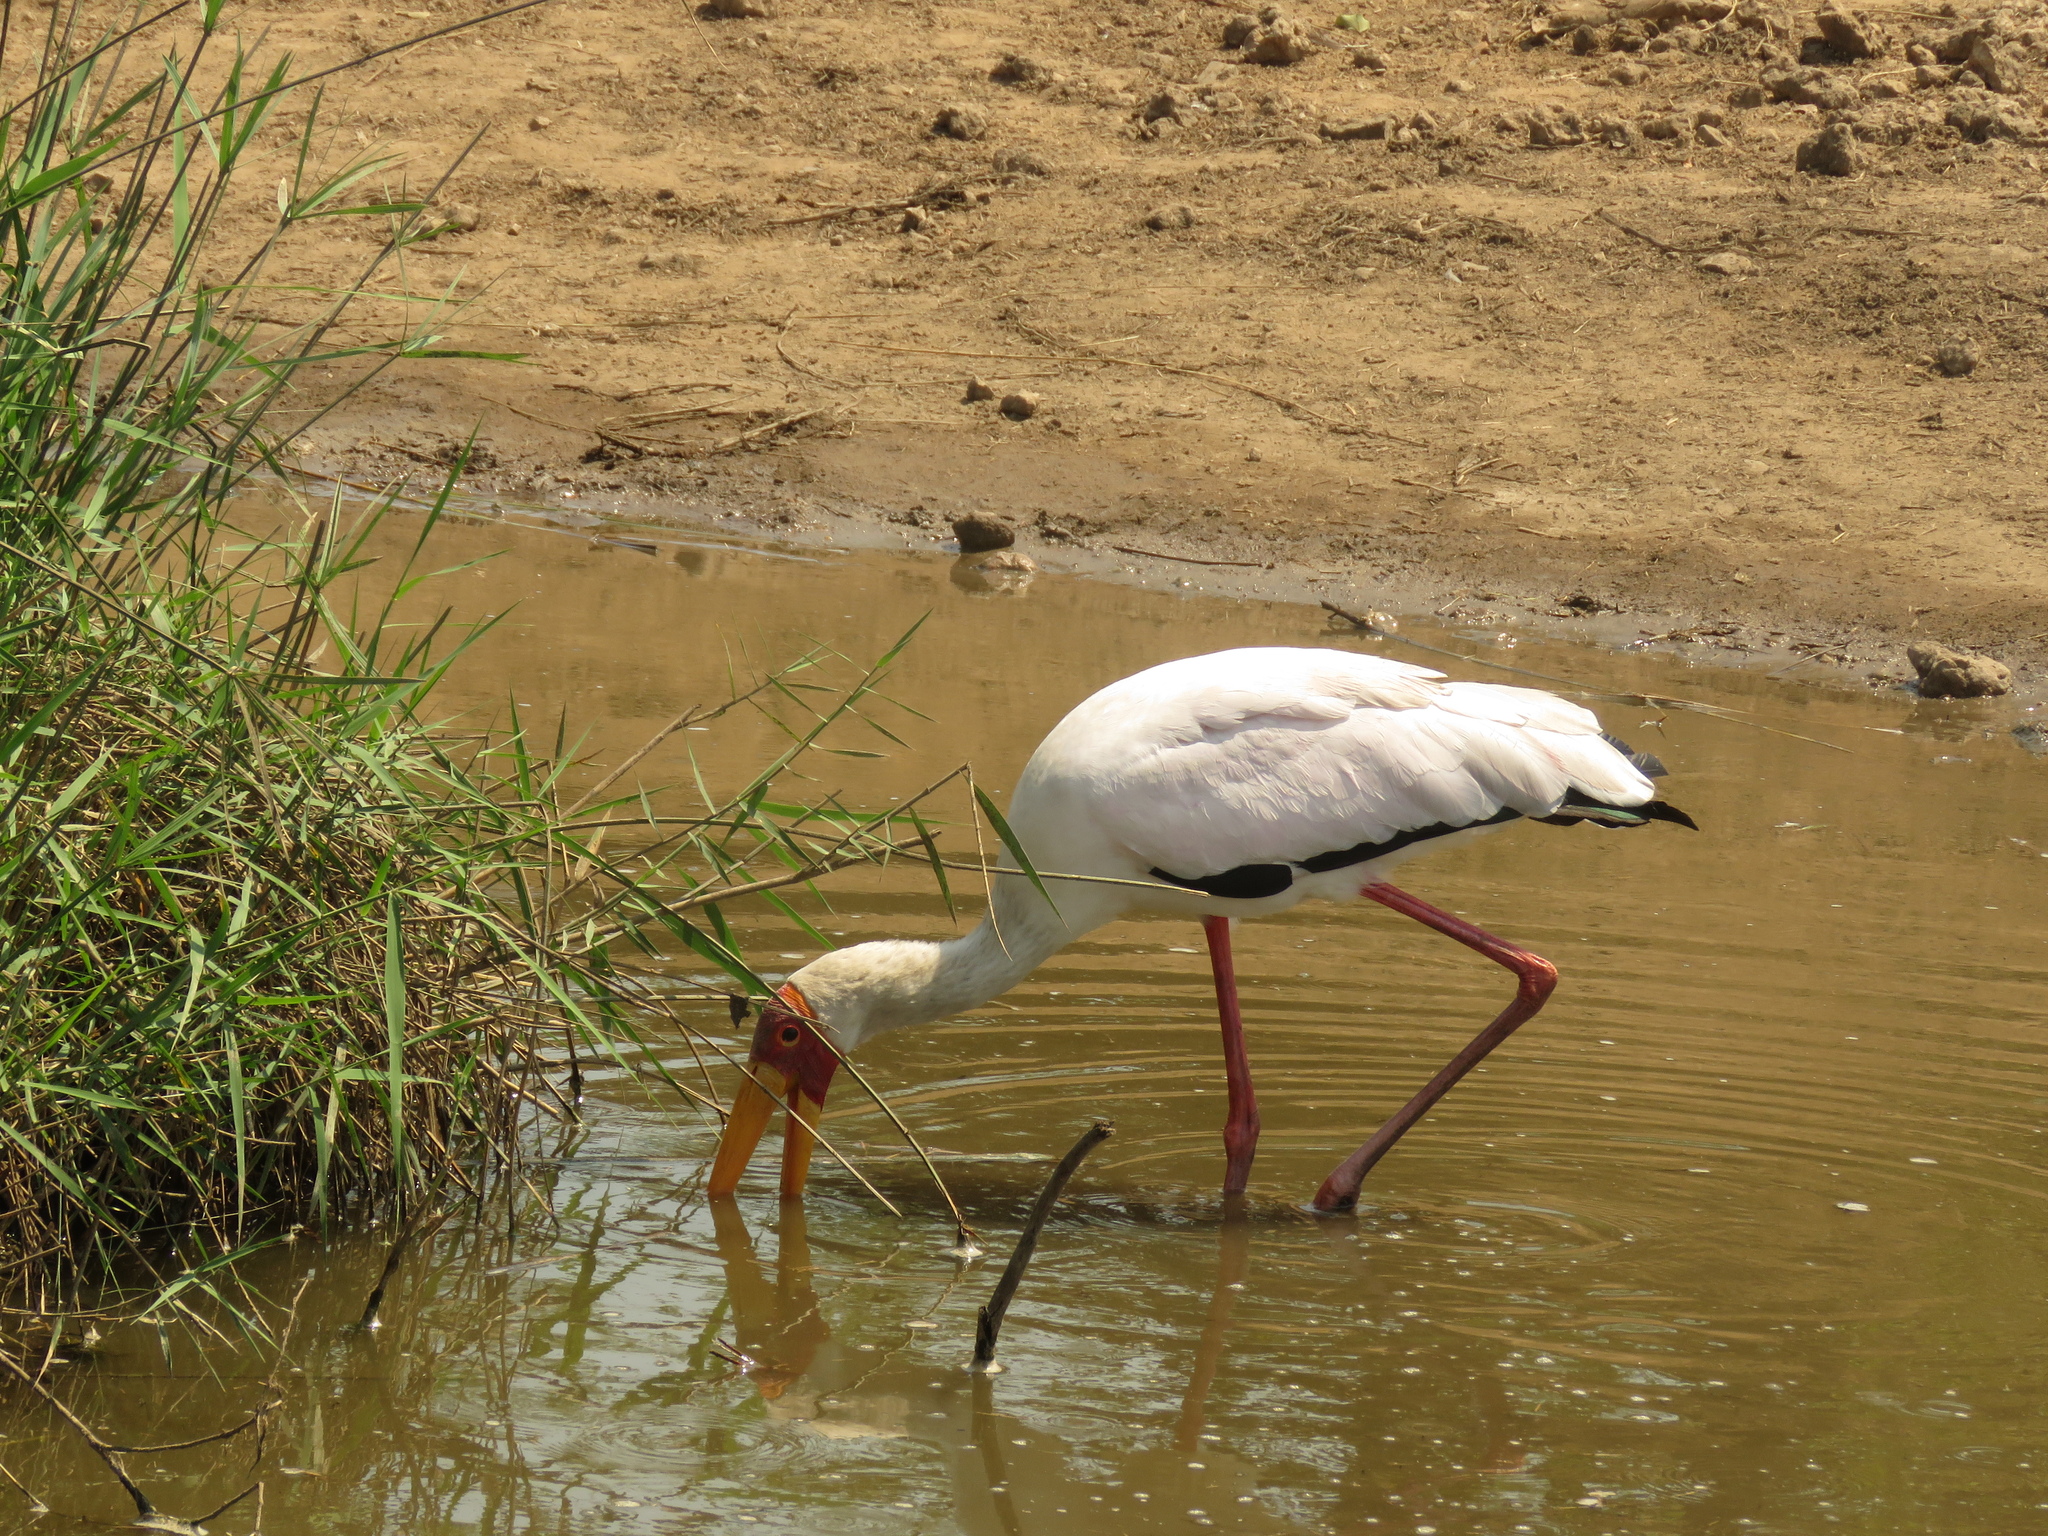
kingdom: Animalia
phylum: Chordata
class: Aves
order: Ciconiiformes
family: Ciconiidae
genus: Mycteria
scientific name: Mycteria ibis
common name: Yellow-billed stork
